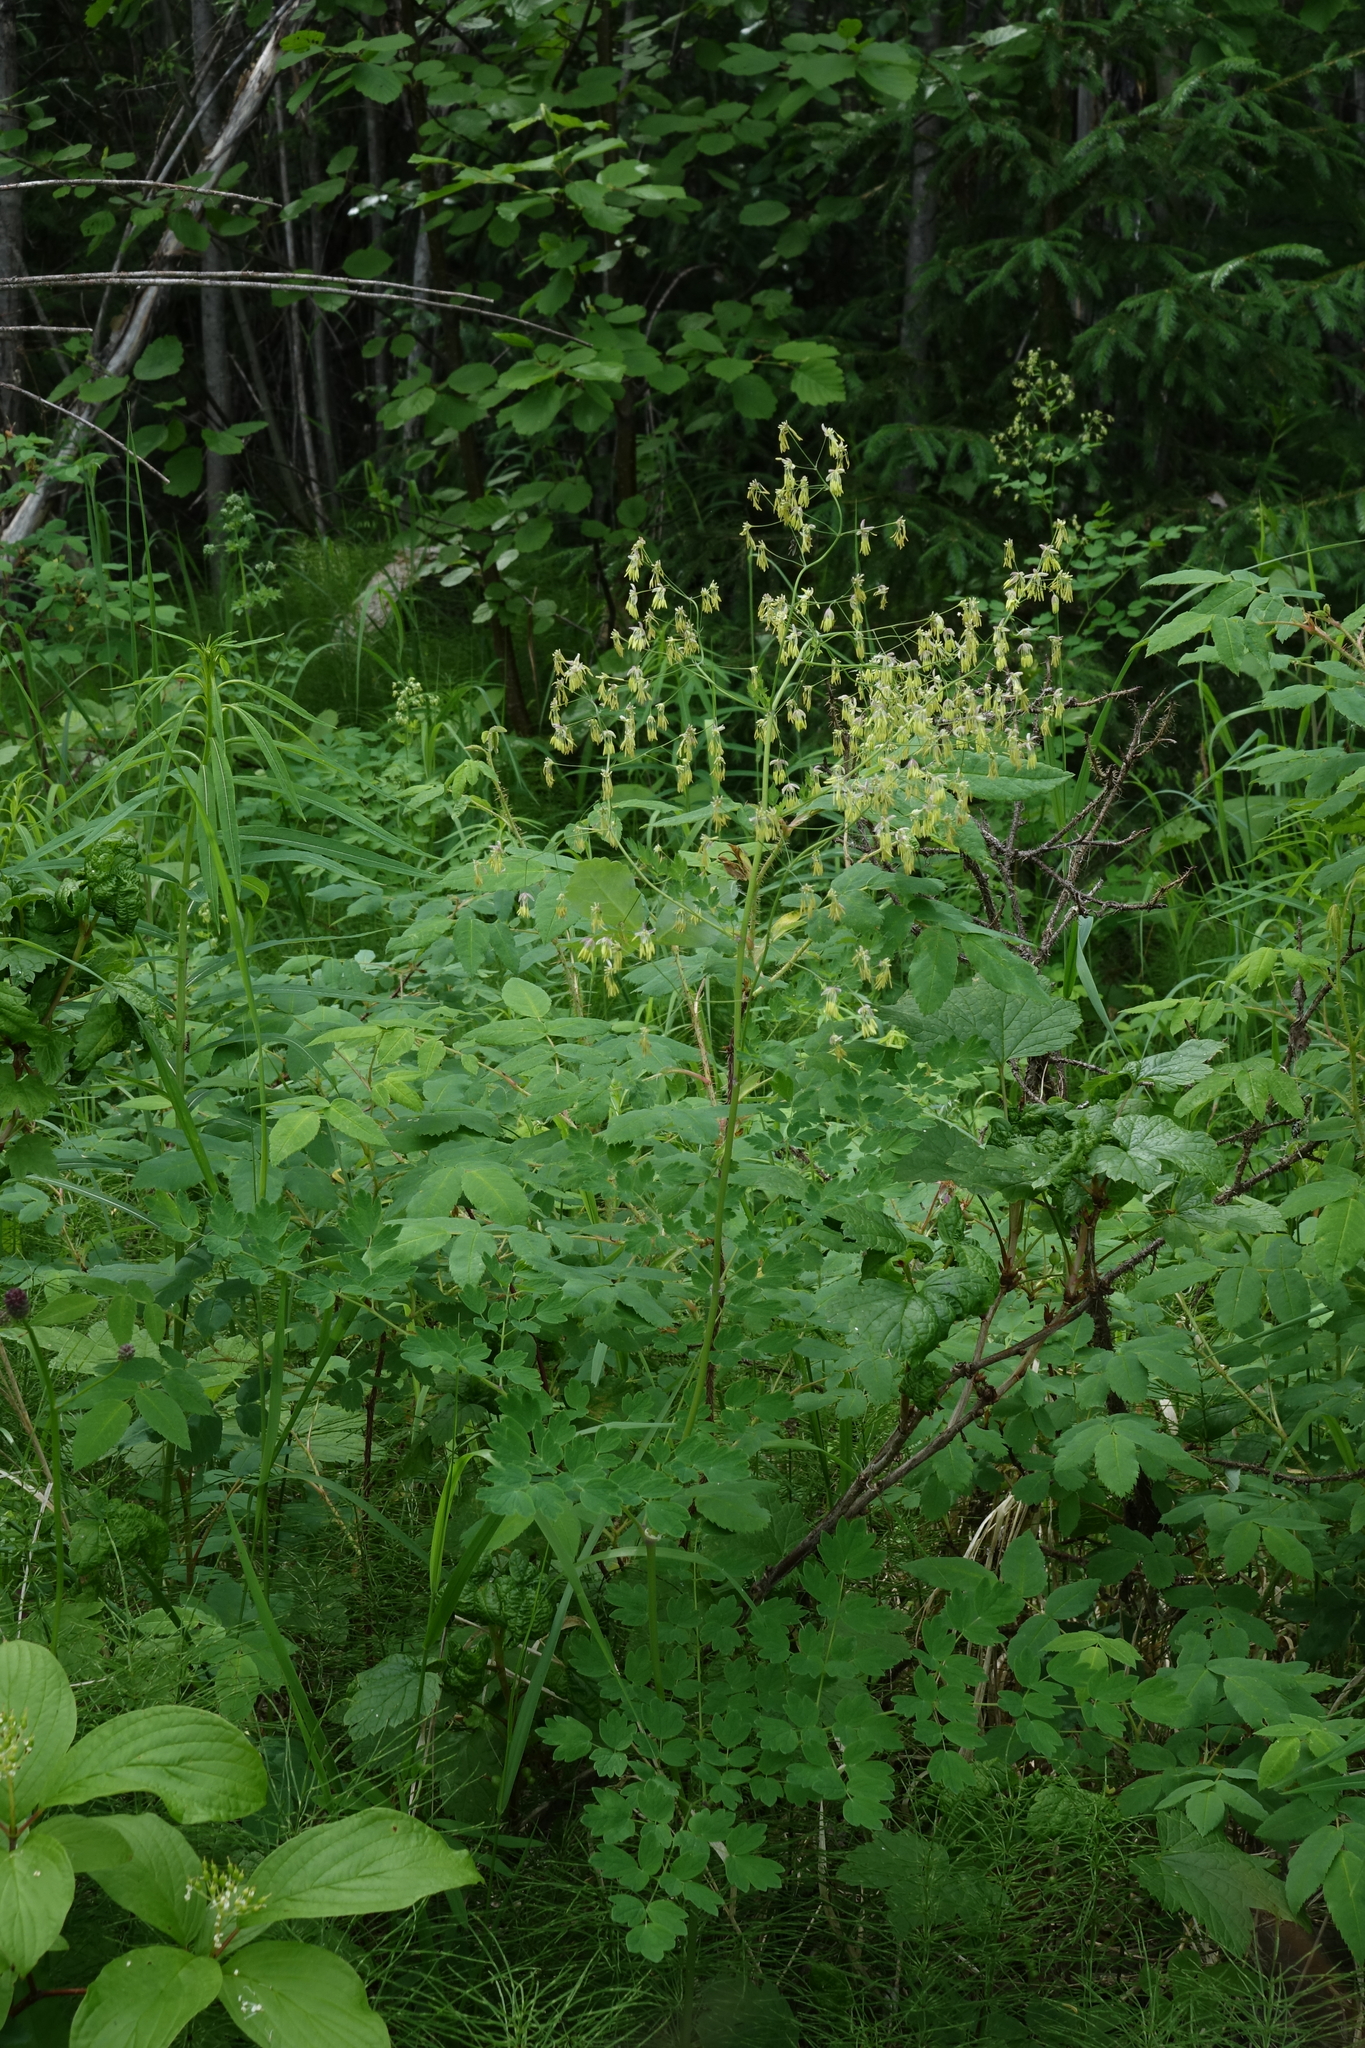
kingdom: Plantae
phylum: Tracheophyta
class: Magnoliopsida
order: Ranunculales
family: Ranunculaceae
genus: Thalictrum
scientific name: Thalictrum minus
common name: Lesser meadow-rue
